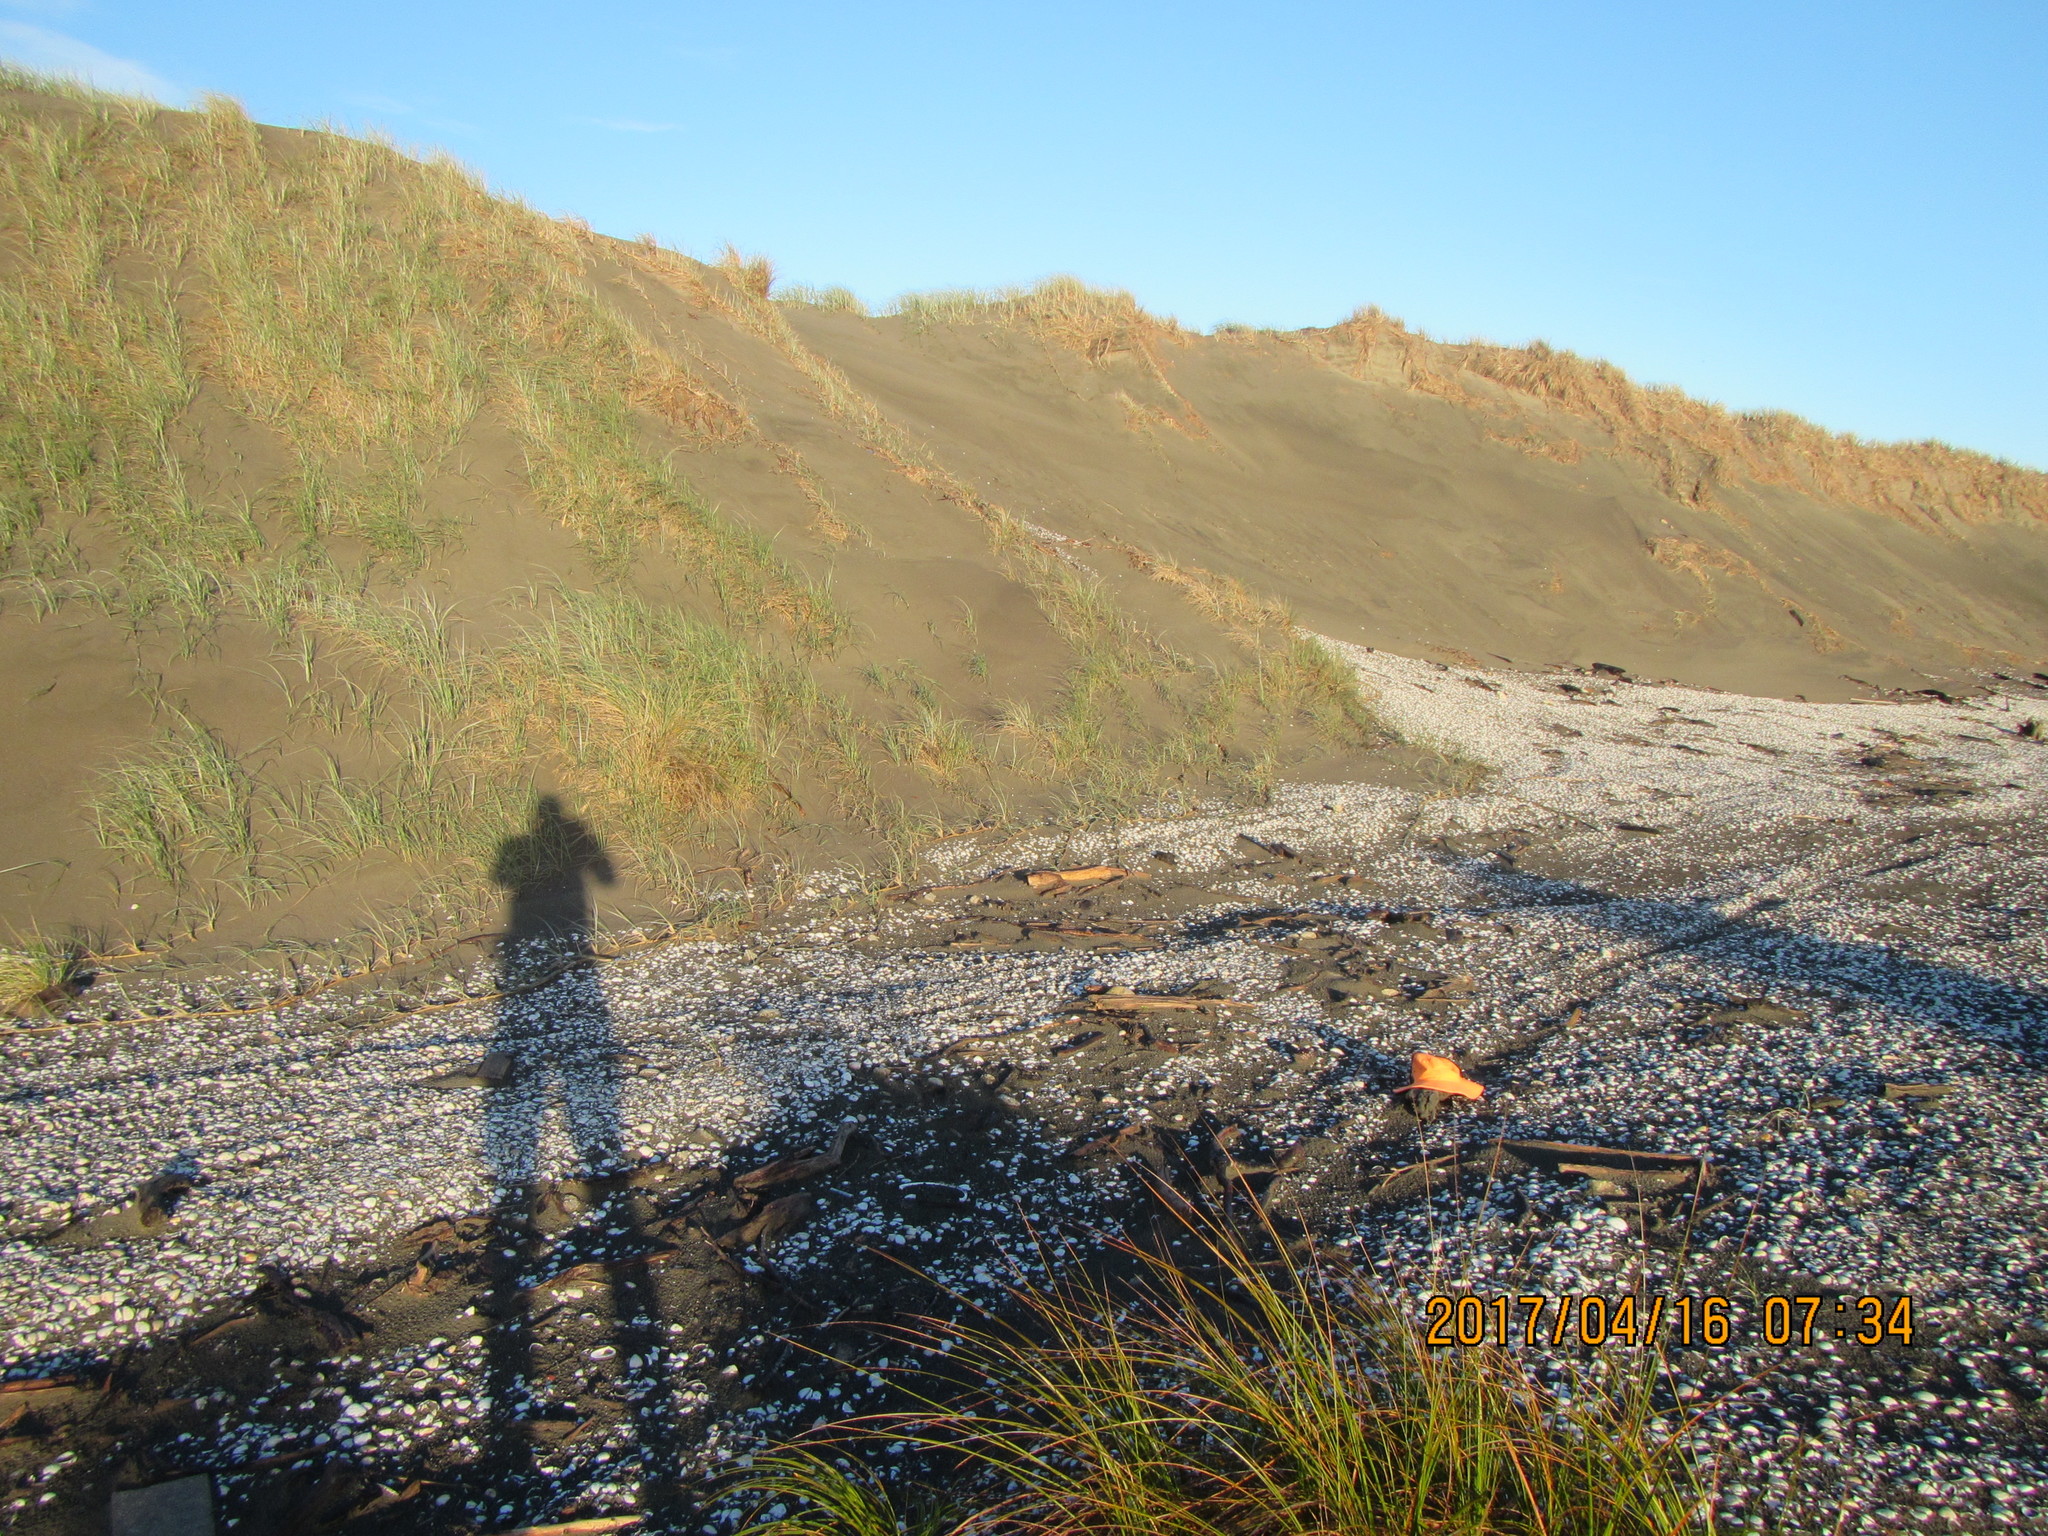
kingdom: Animalia
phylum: Arthropoda
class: Insecta
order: Dermaptera
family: Anisolabididae
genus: Anisolabis
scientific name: Anisolabis littorea
